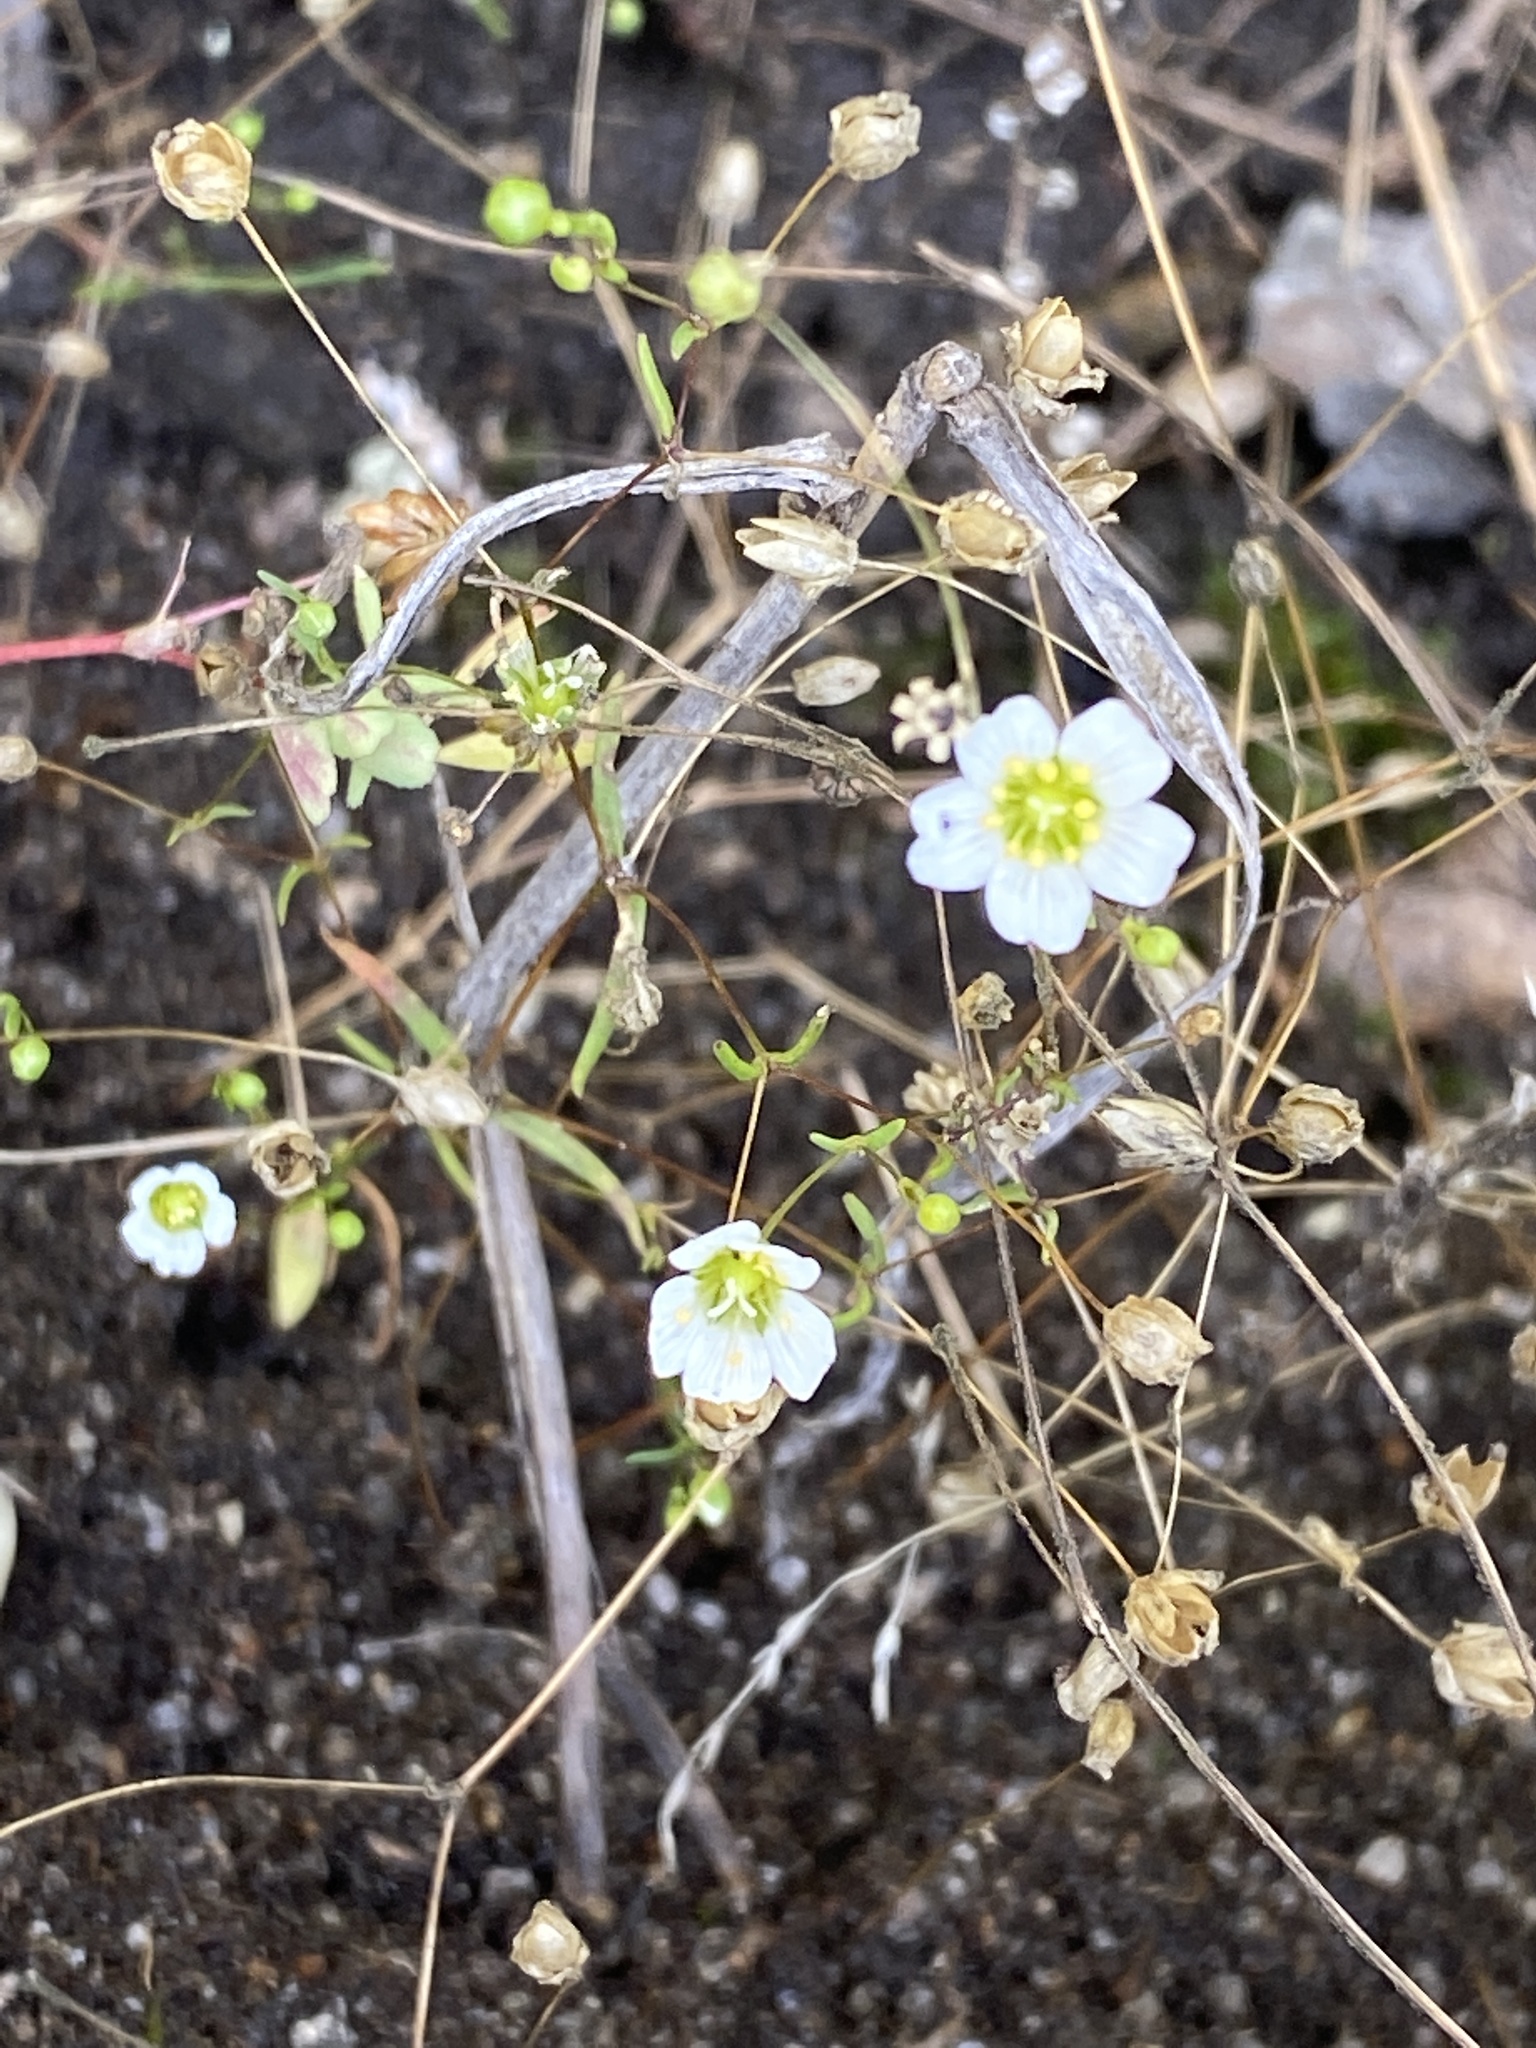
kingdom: Plantae
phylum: Tracheophyta
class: Magnoliopsida
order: Caryophyllales
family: Caryophyllaceae
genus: Geocarpon
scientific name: Geocarpon glabrum
